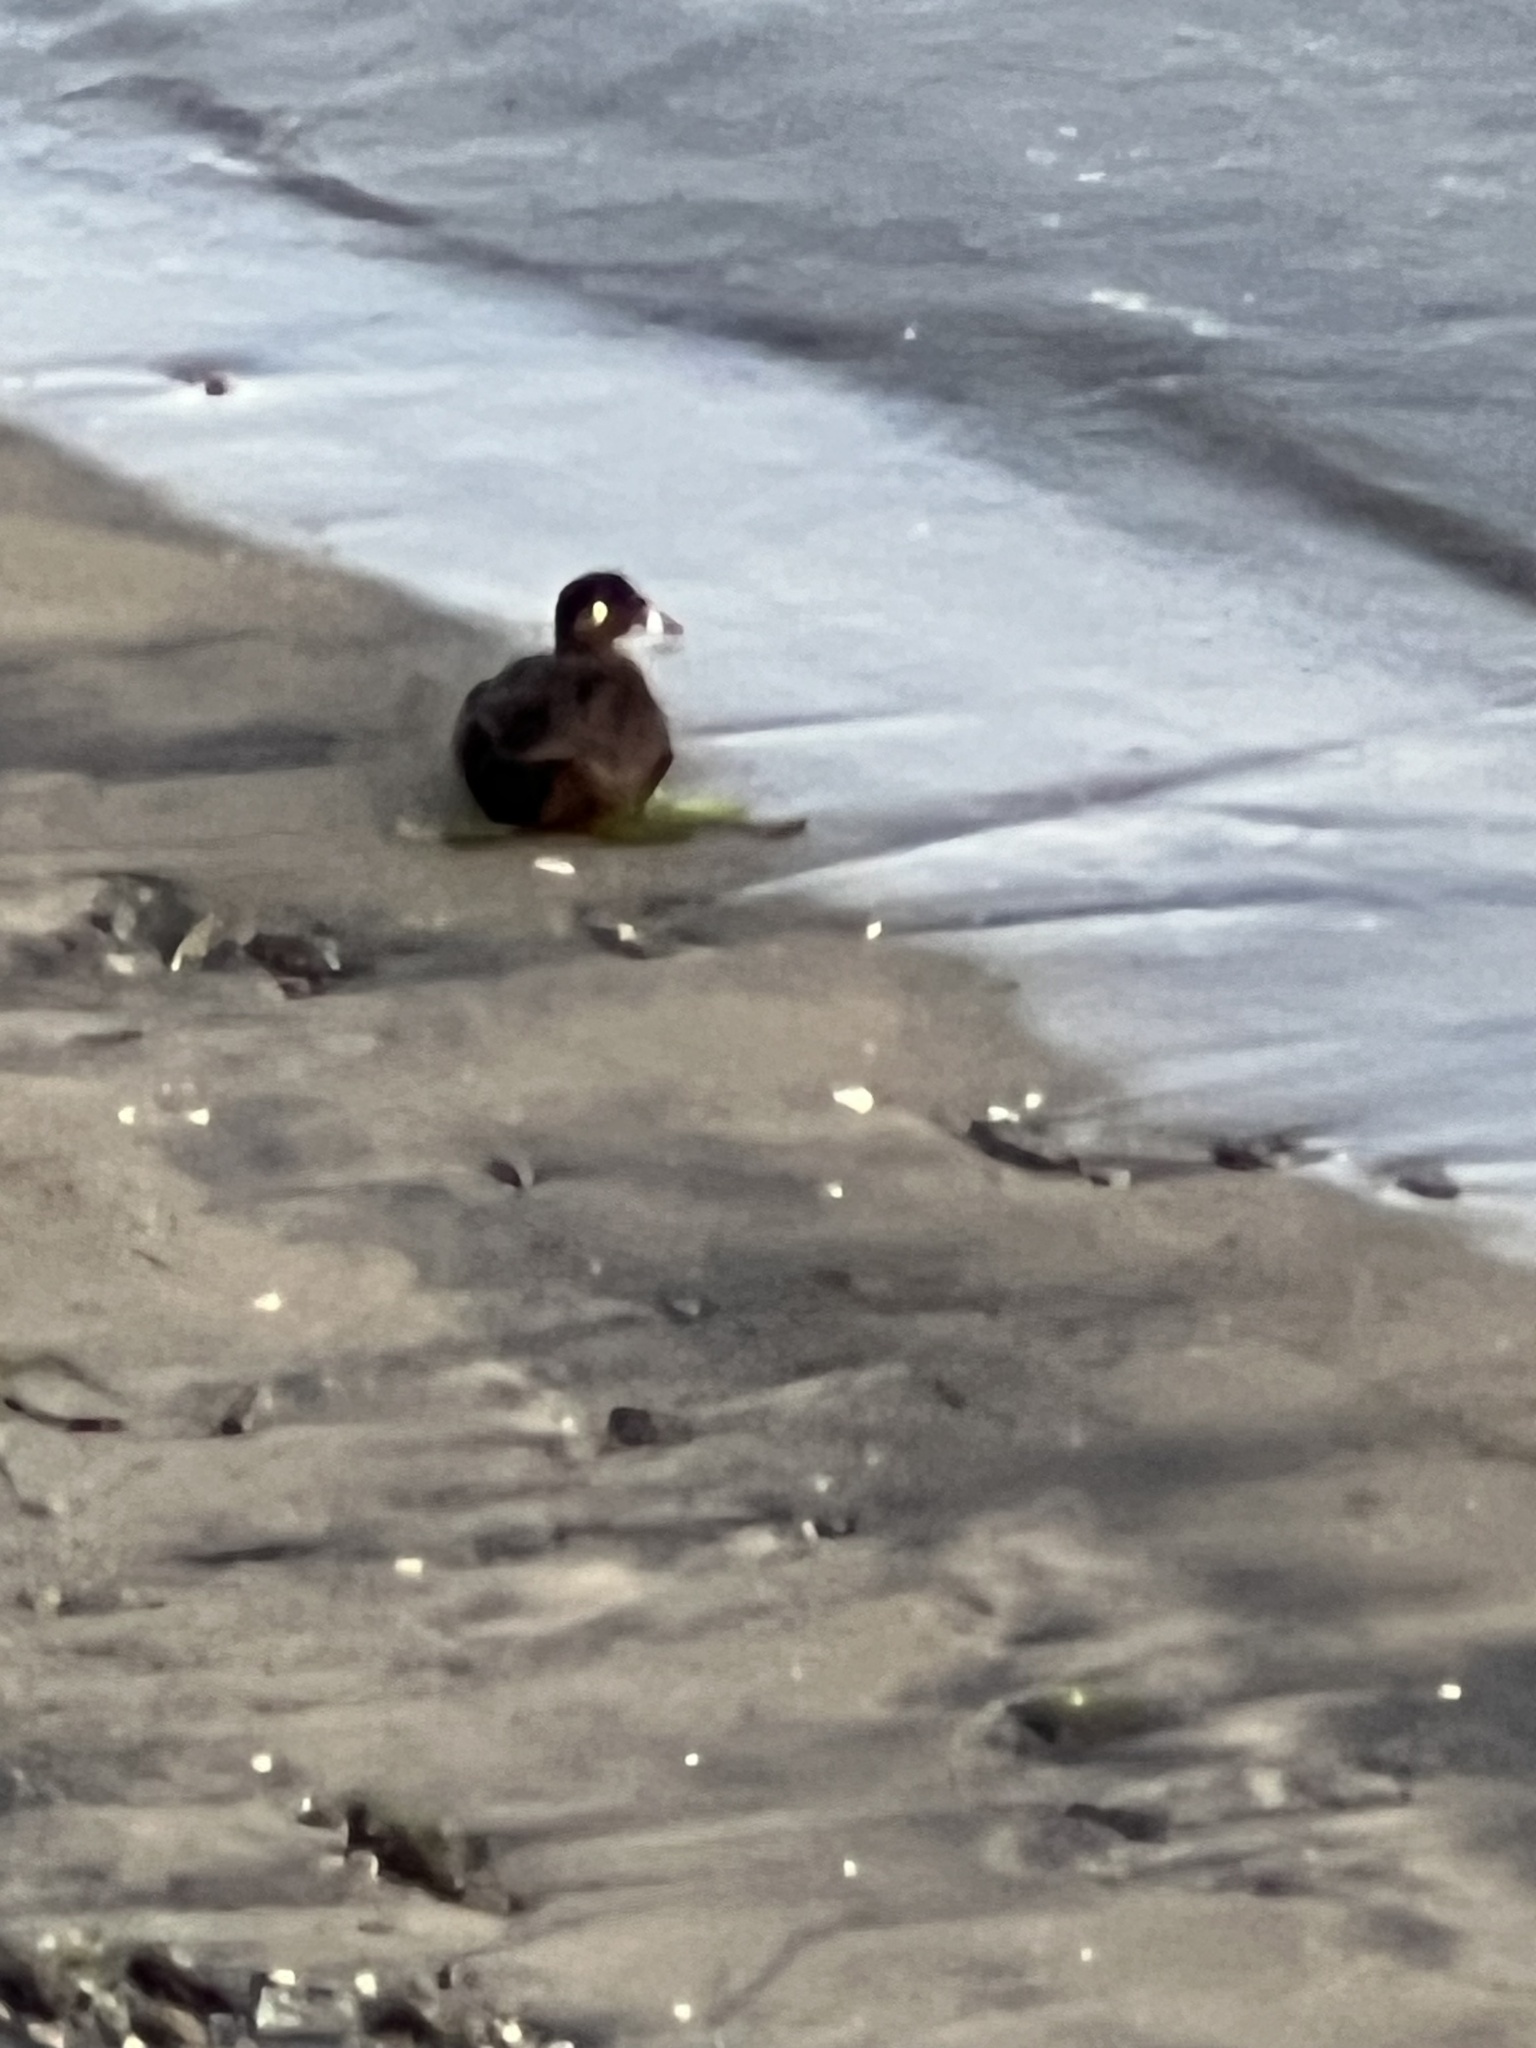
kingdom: Animalia
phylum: Chordata
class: Aves
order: Anseriformes
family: Anatidae
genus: Melanitta
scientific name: Melanitta perspicillata
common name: Surf scoter
